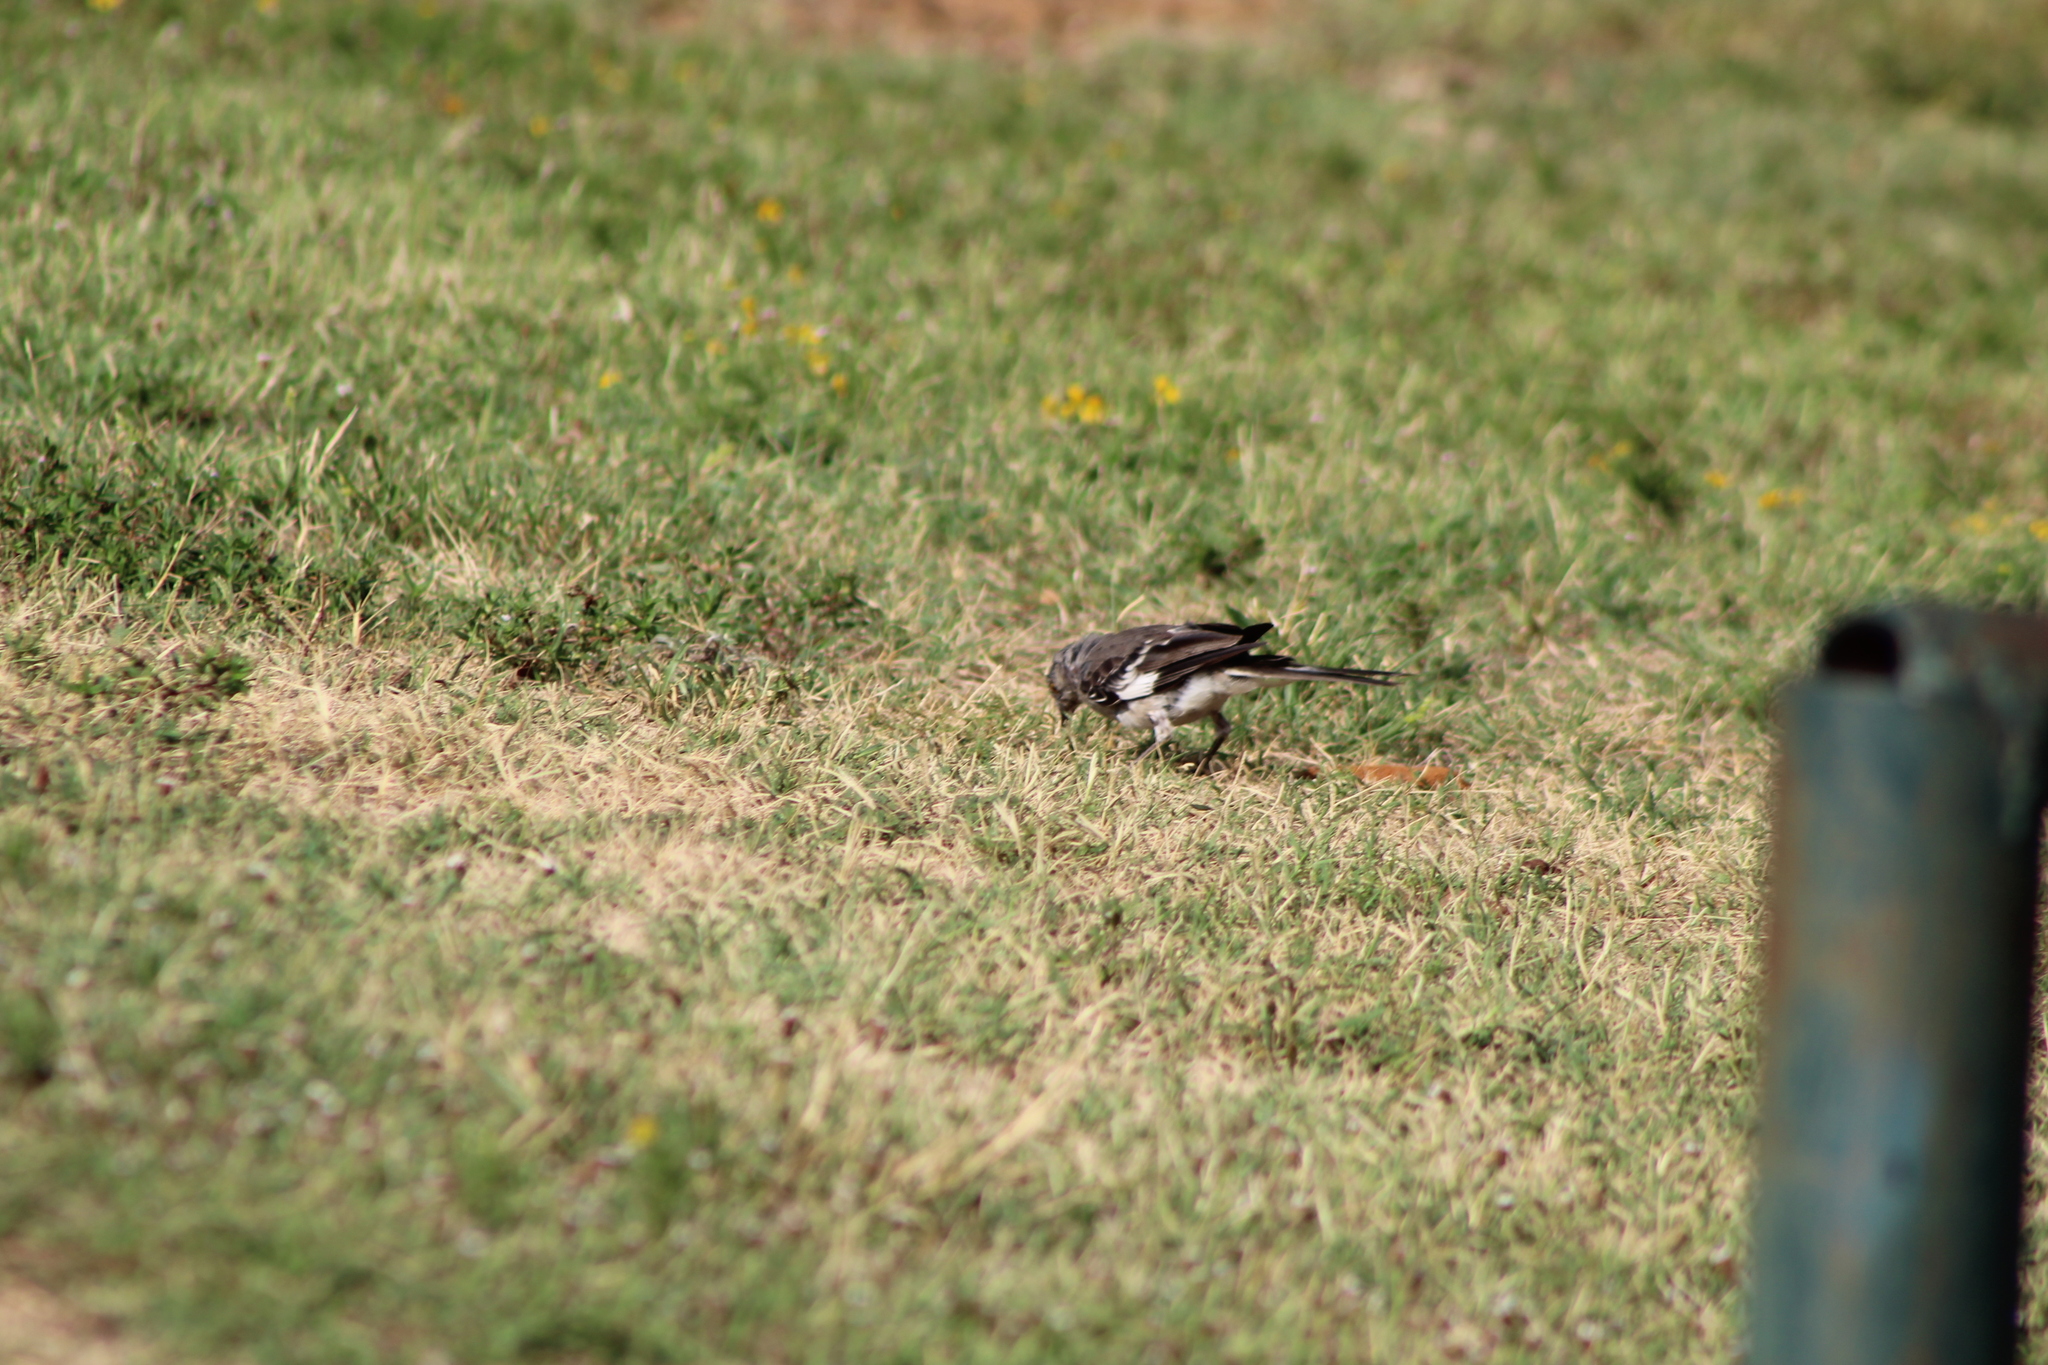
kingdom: Animalia
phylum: Chordata
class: Aves
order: Passeriformes
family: Mimidae
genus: Mimus
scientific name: Mimus polyglottos
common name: Northern mockingbird
